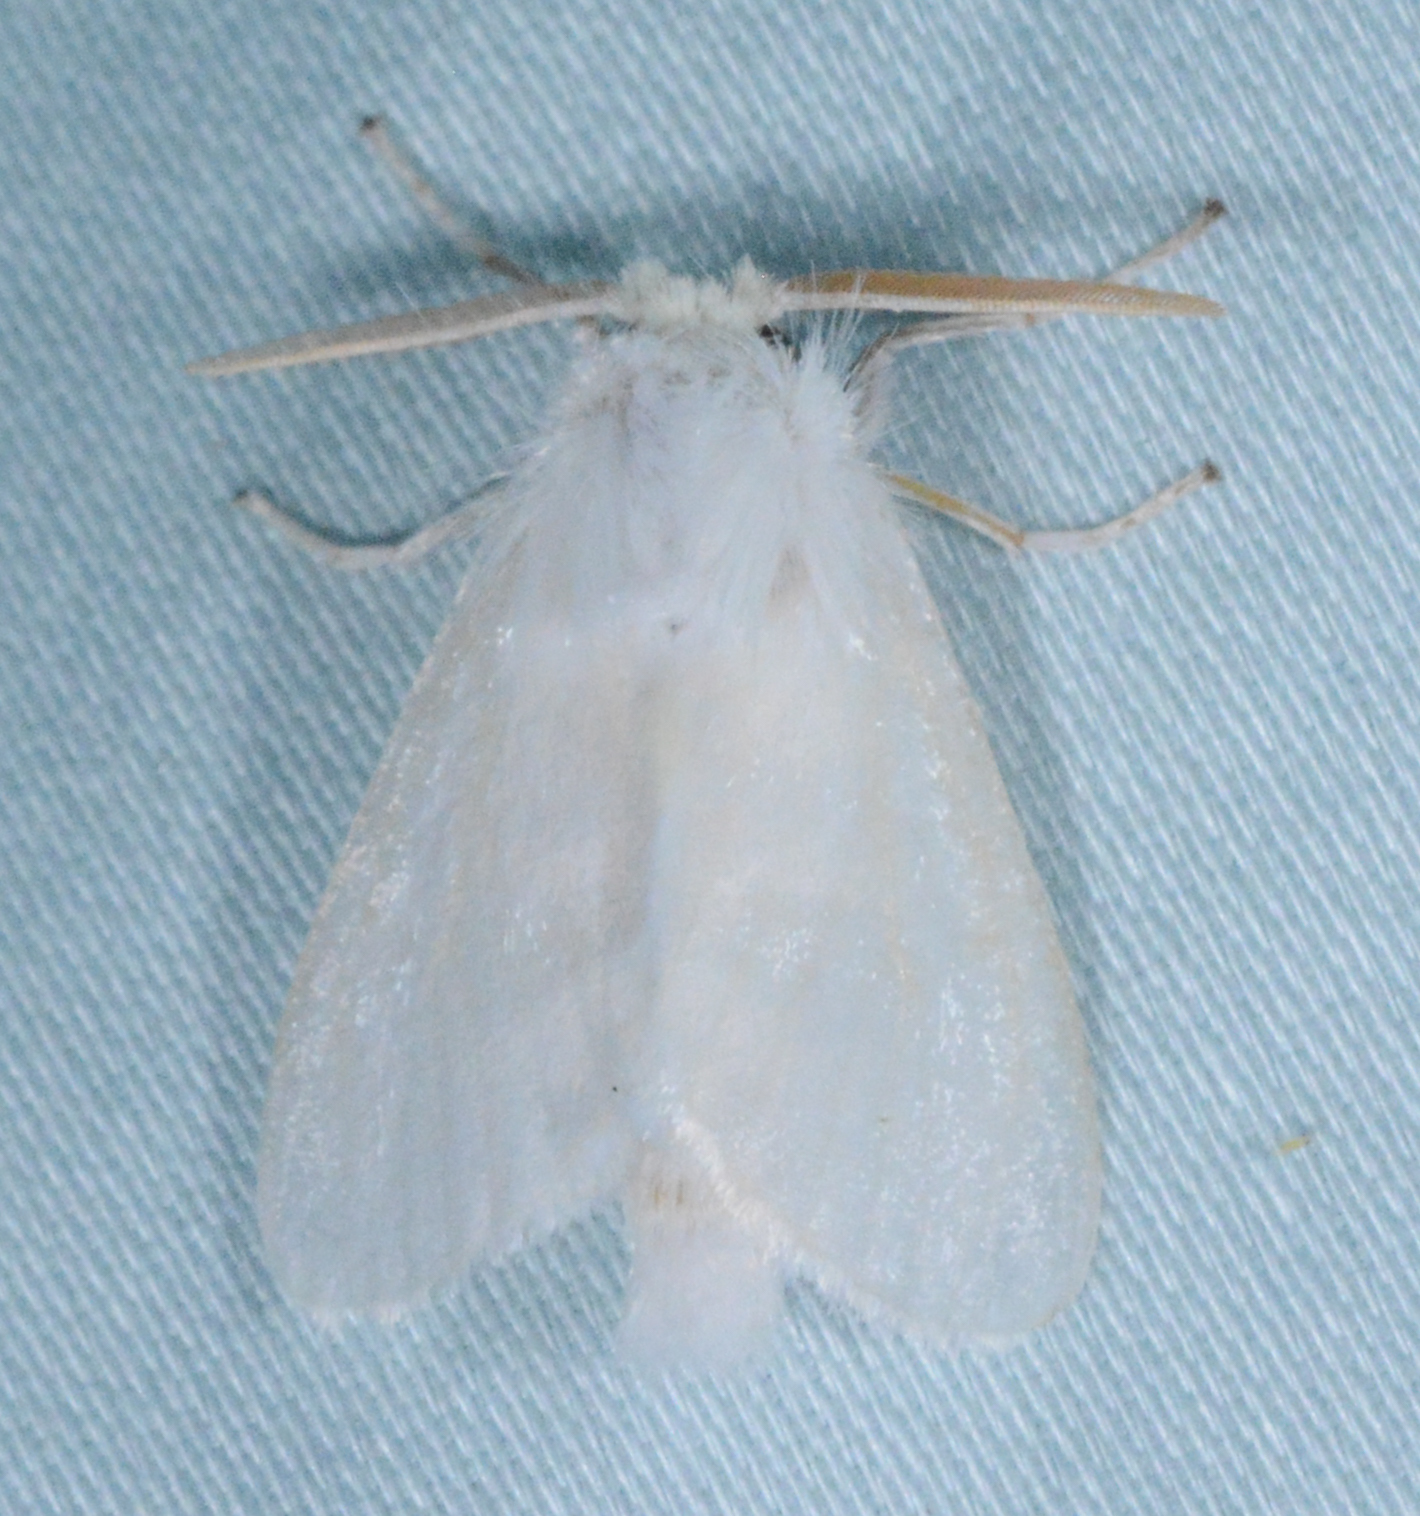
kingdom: Animalia
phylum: Arthropoda
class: Insecta
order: Lepidoptera
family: Megalopygidae
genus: Norape
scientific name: Norape cretata
